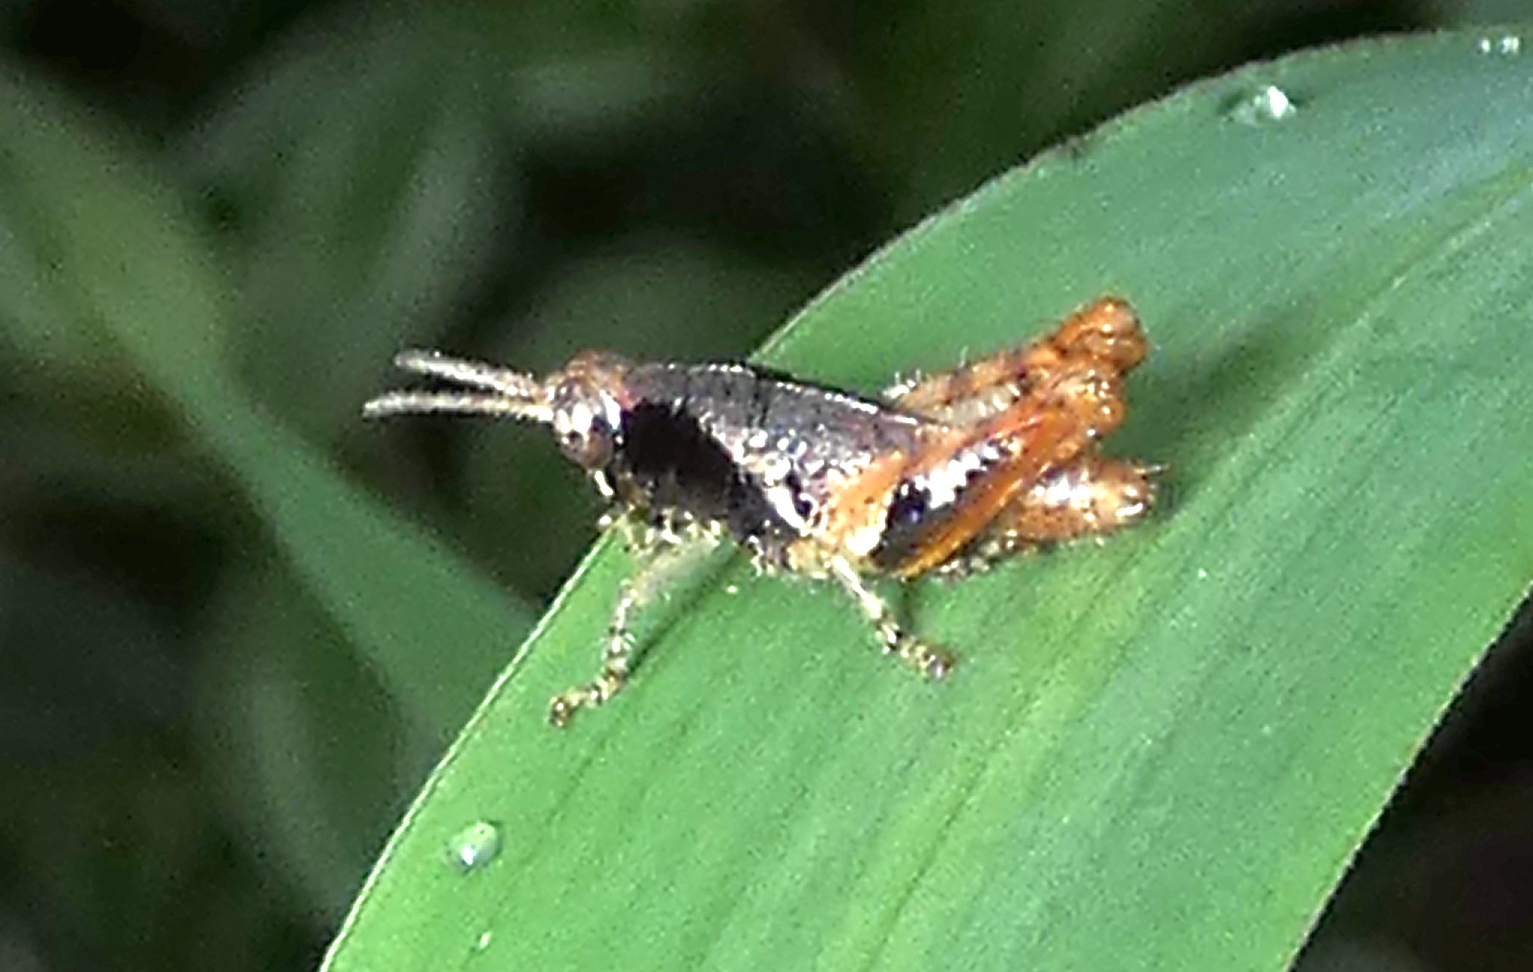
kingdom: Animalia
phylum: Arthropoda
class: Insecta
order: Orthoptera
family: Acrididae
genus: Eujivarus
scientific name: Eujivarus meridionalis
